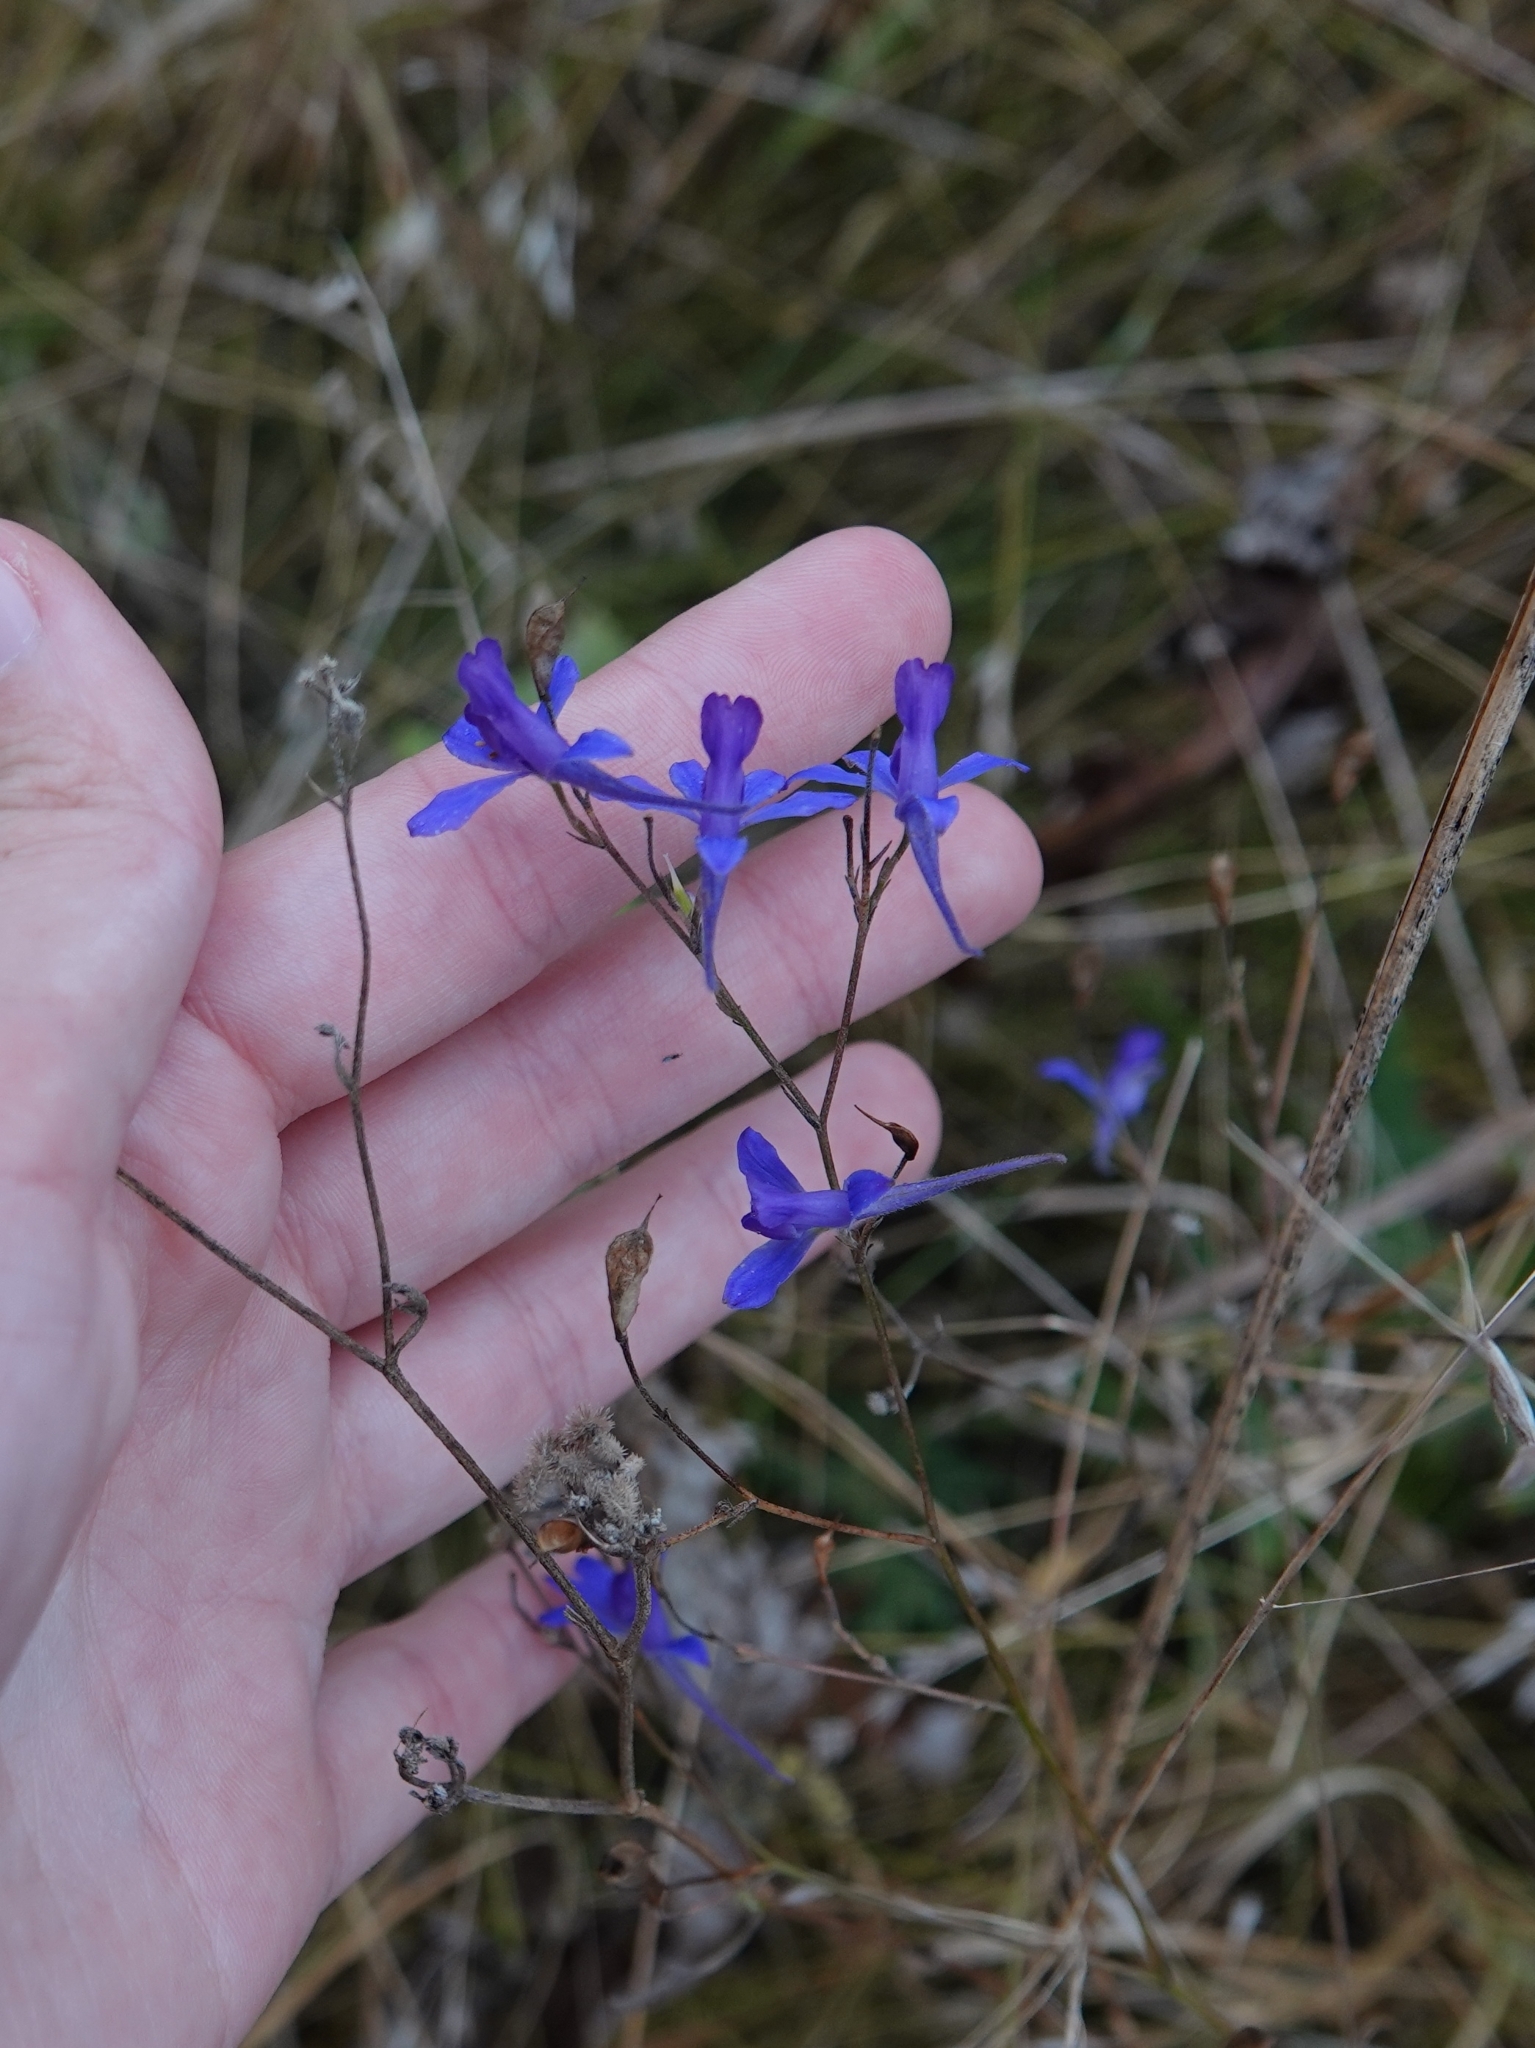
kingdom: Plantae
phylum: Tracheophyta
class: Magnoliopsida
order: Ranunculales
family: Ranunculaceae
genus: Delphinium
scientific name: Delphinium consolida
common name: Branching larkspur
